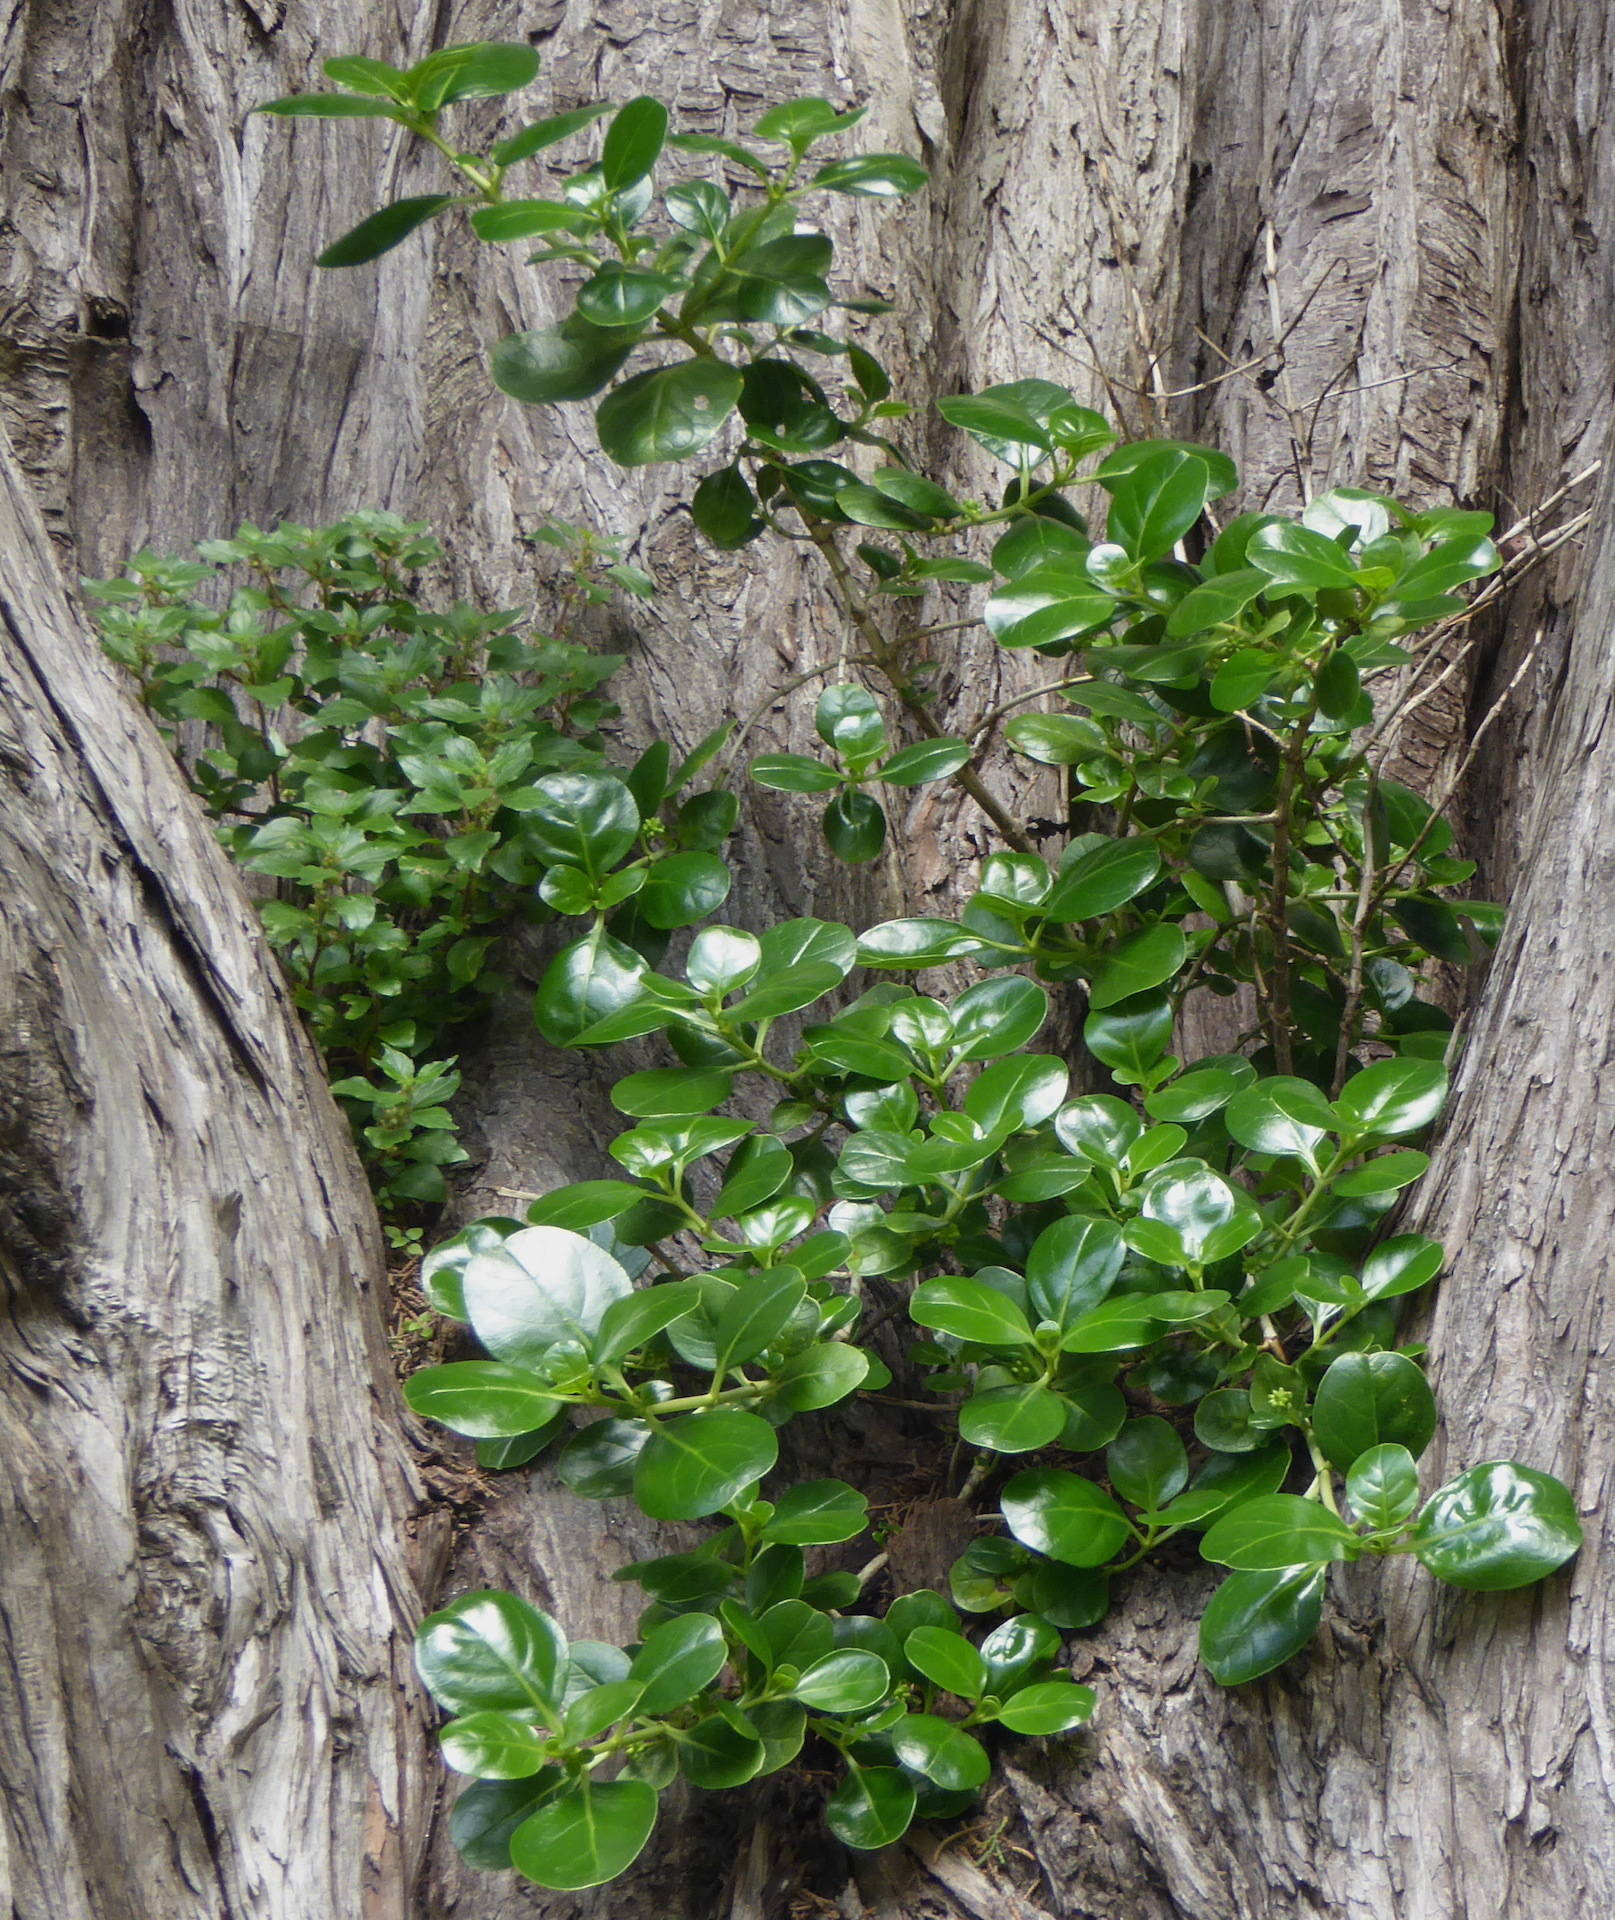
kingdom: Plantae
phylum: Tracheophyta
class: Magnoliopsida
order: Gentianales
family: Rubiaceae
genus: Coprosma
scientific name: Coprosma repens
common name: Tree bedstraw
